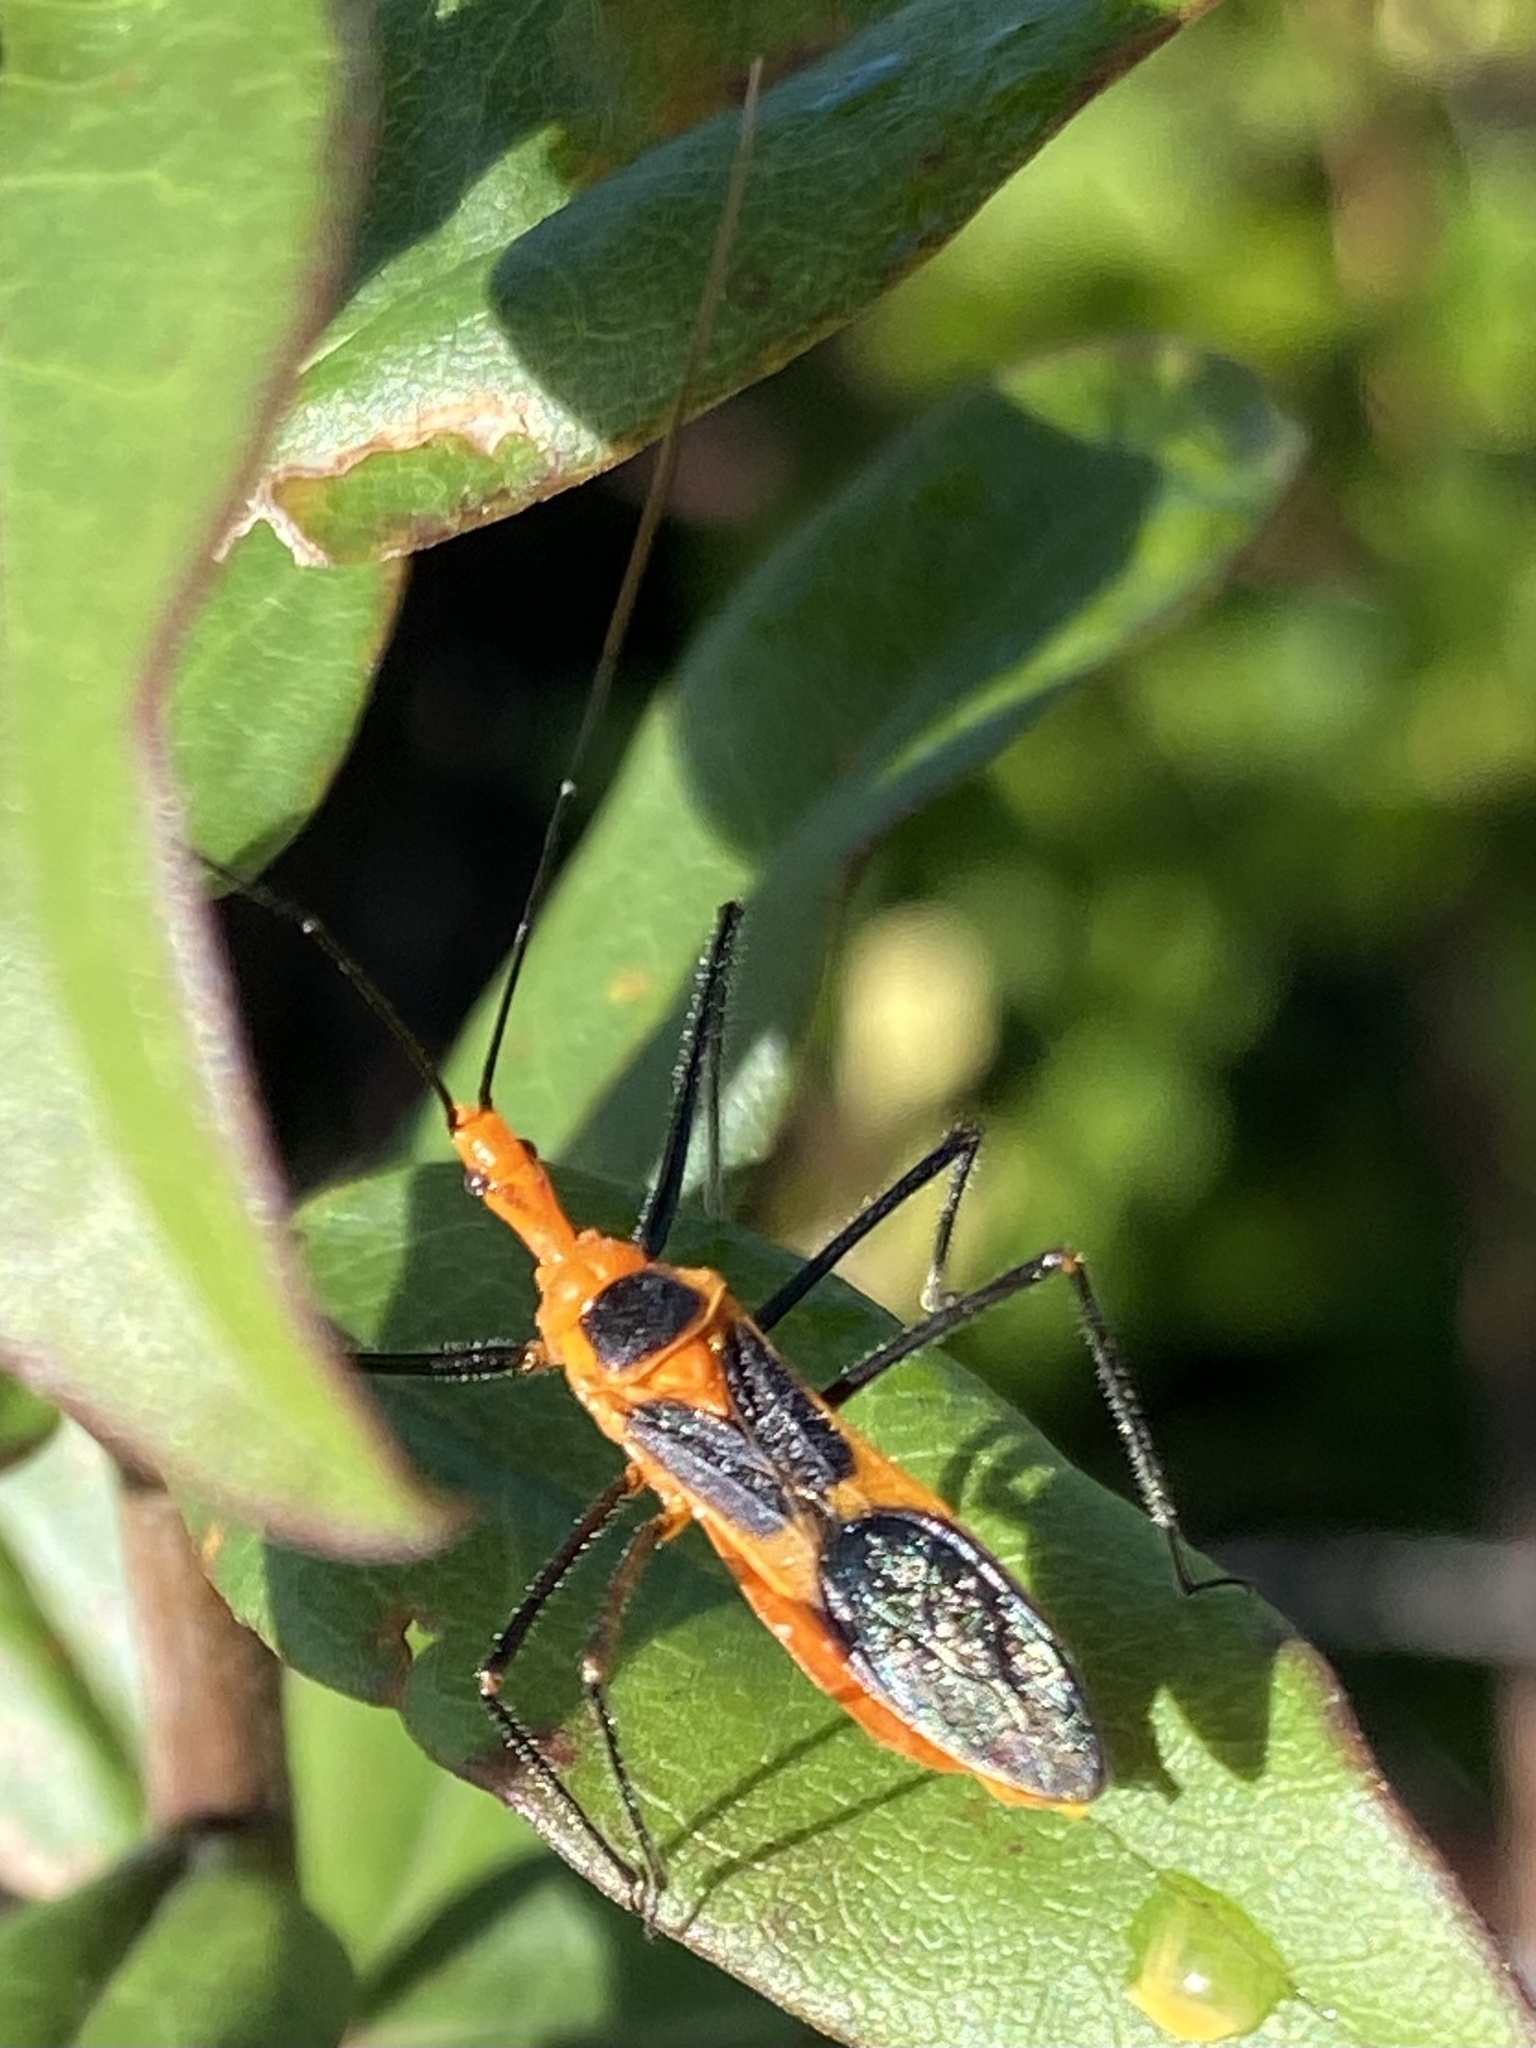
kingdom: Animalia
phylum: Arthropoda
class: Insecta
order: Hemiptera
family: Reduviidae
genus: Zelus
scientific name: Zelus longipes
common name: Milkweed assassin bug
